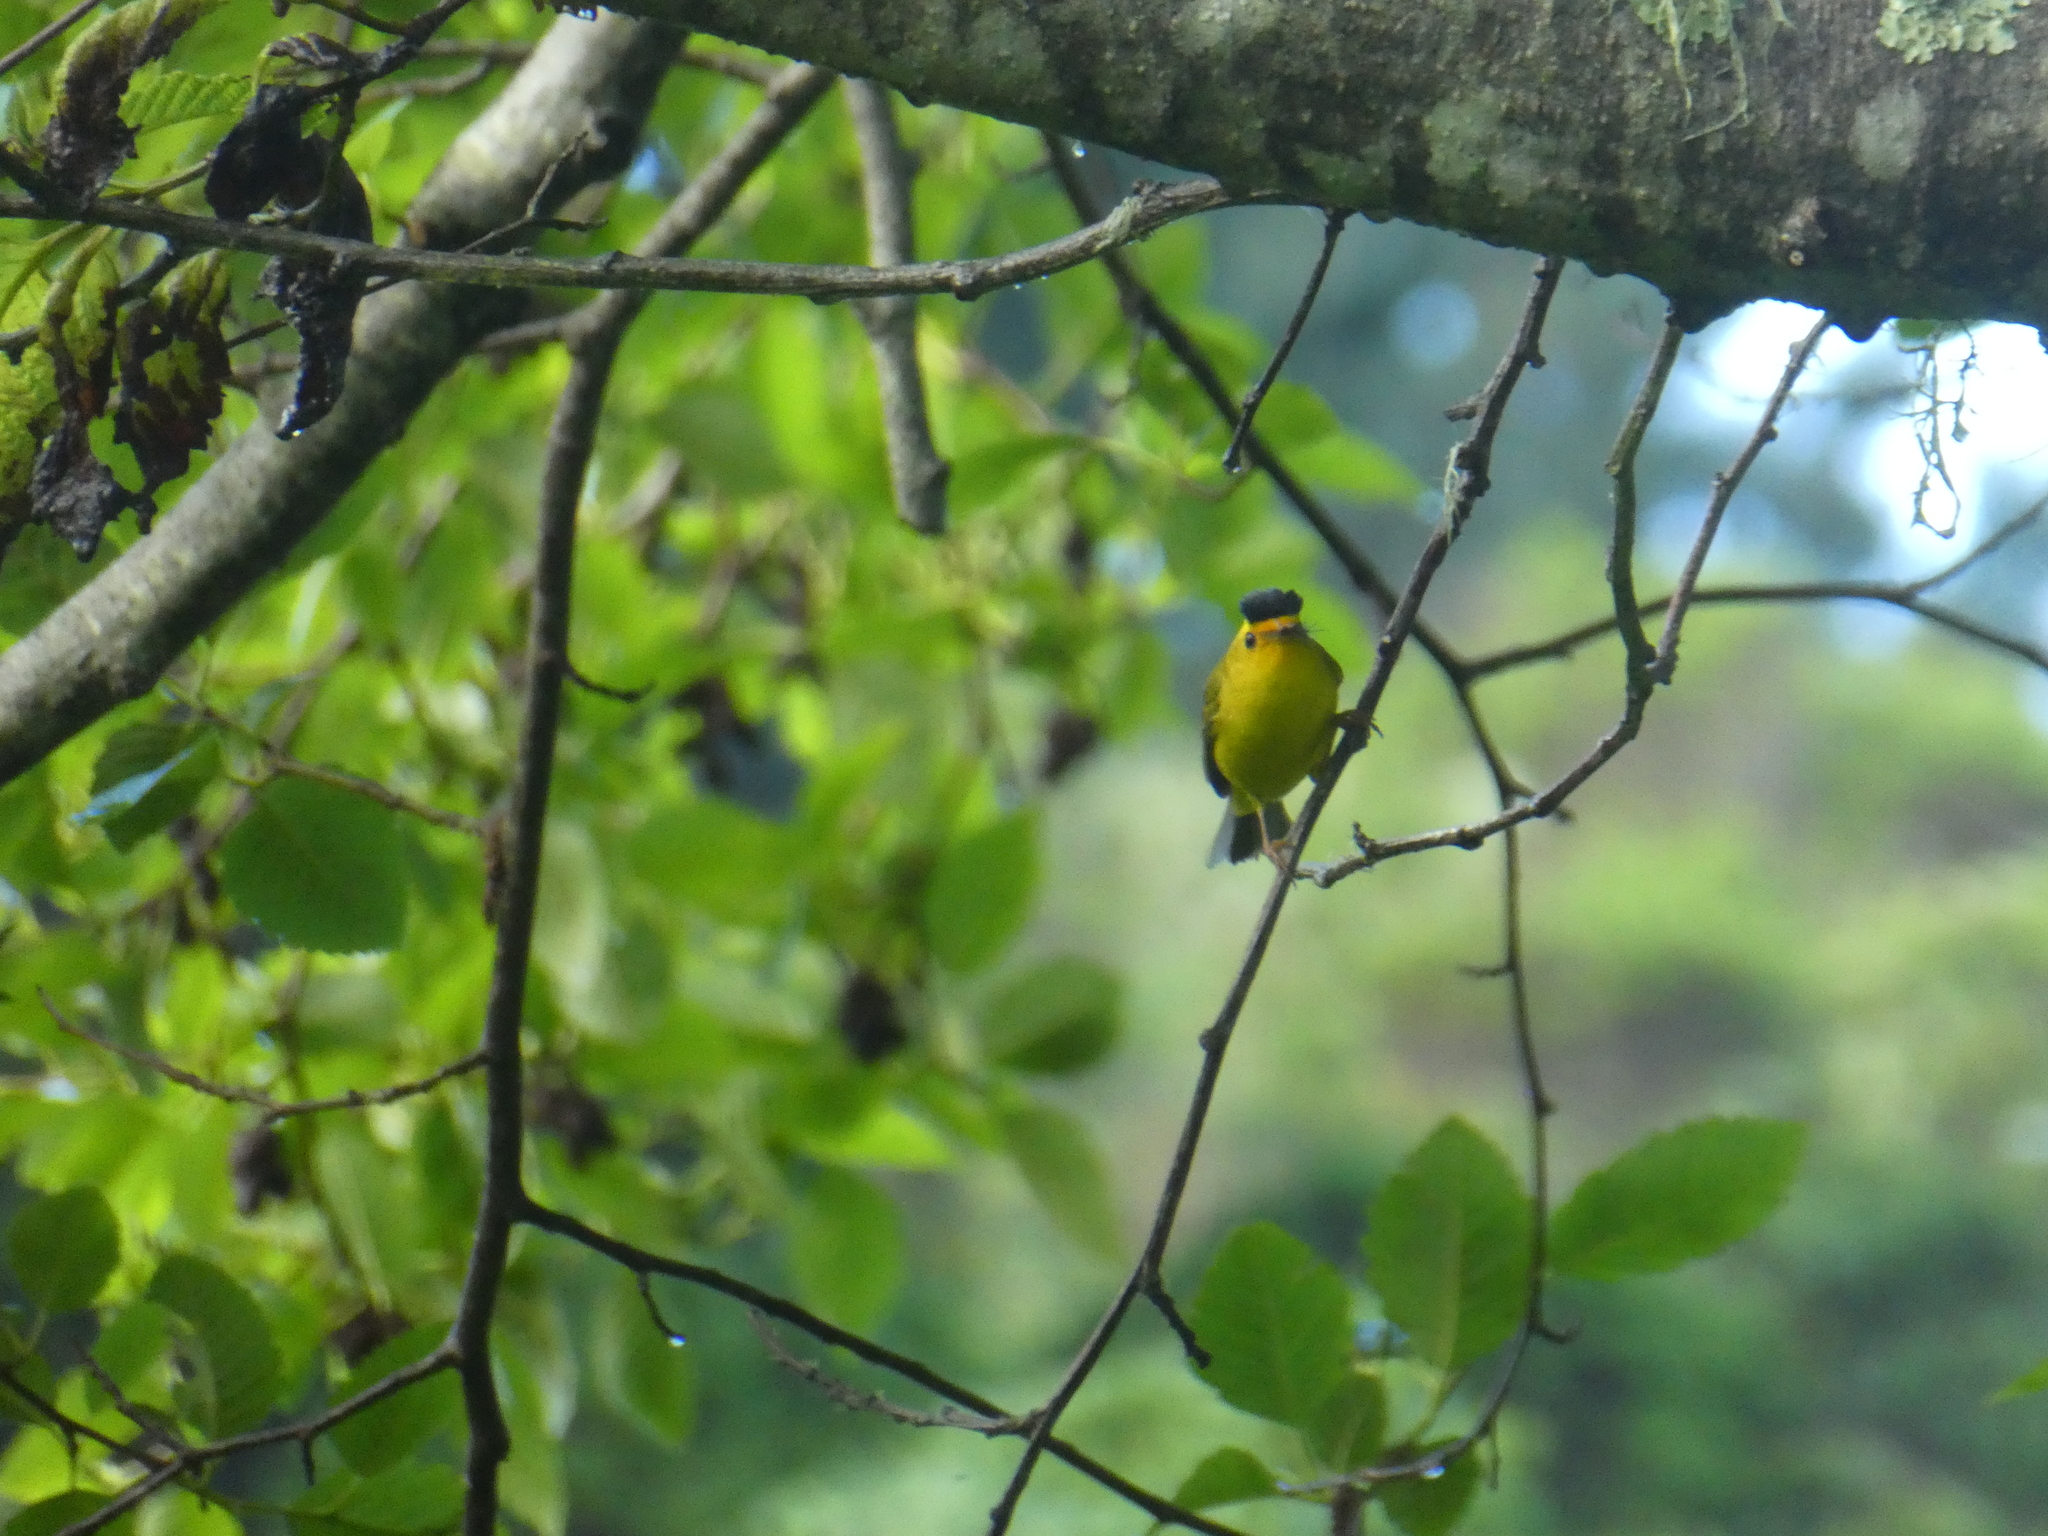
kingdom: Animalia
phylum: Chordata
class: Aves
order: Passeriformes
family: Parulidae
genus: Cardellina
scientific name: Cardellina pusilla
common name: Wilson's warbler
